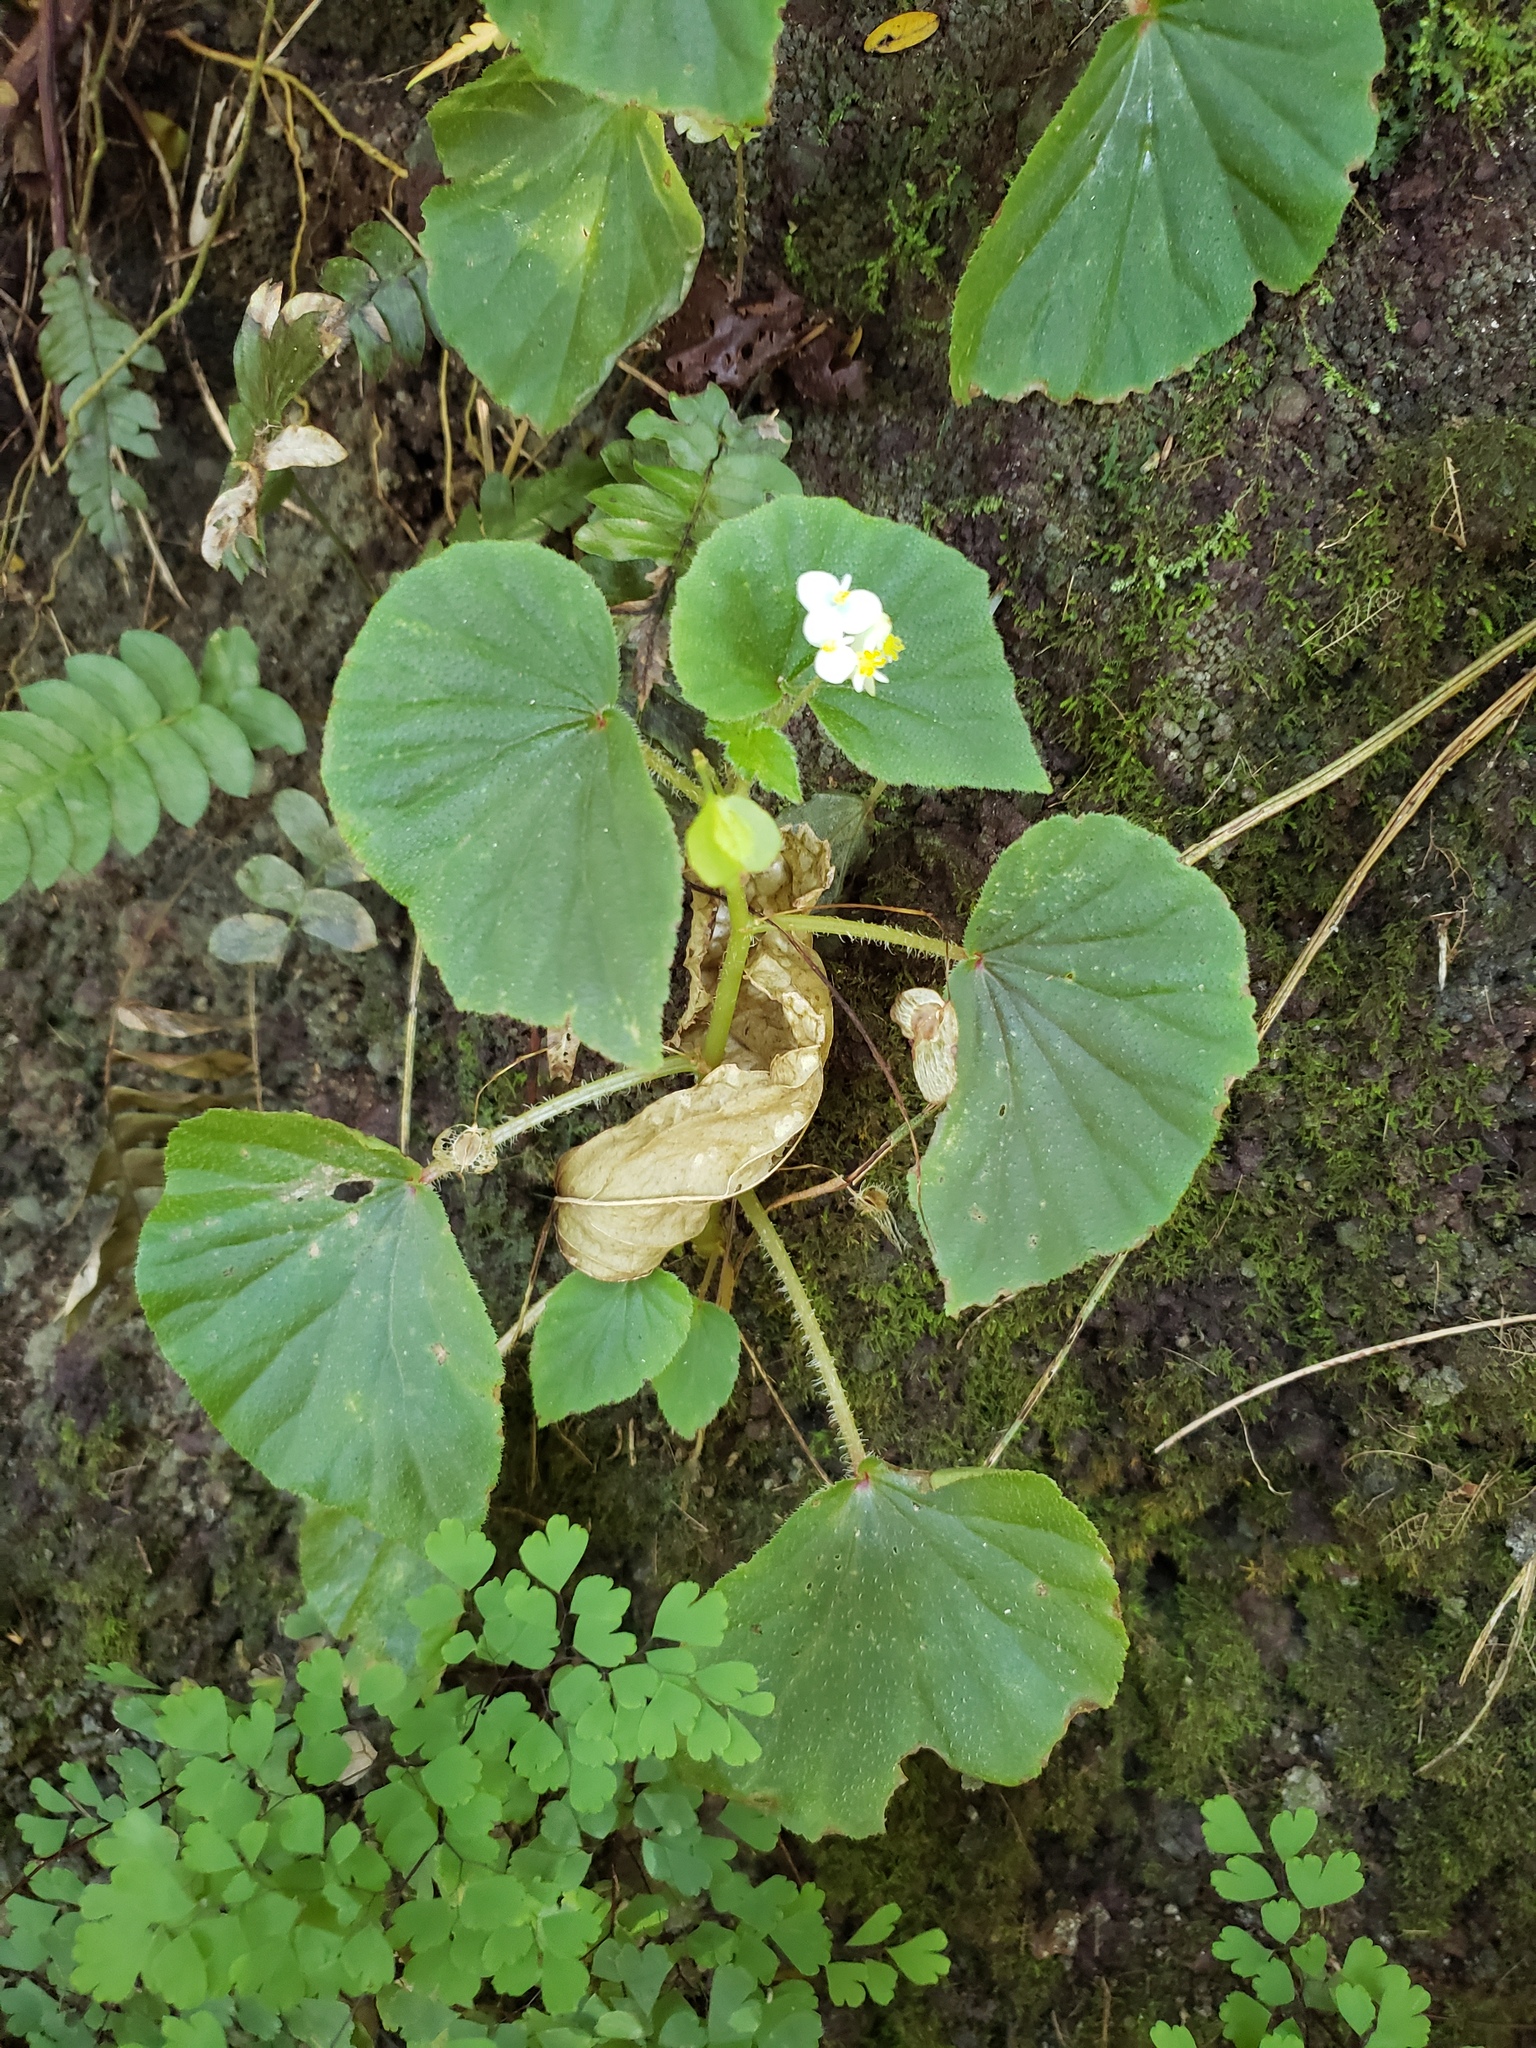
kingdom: Plantae
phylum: Tracheophyta
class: Magnoliopsida
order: Cucurbitales
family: Begoniaceae
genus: Begonia
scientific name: Begonia hirtella
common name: Brazilian begonia
